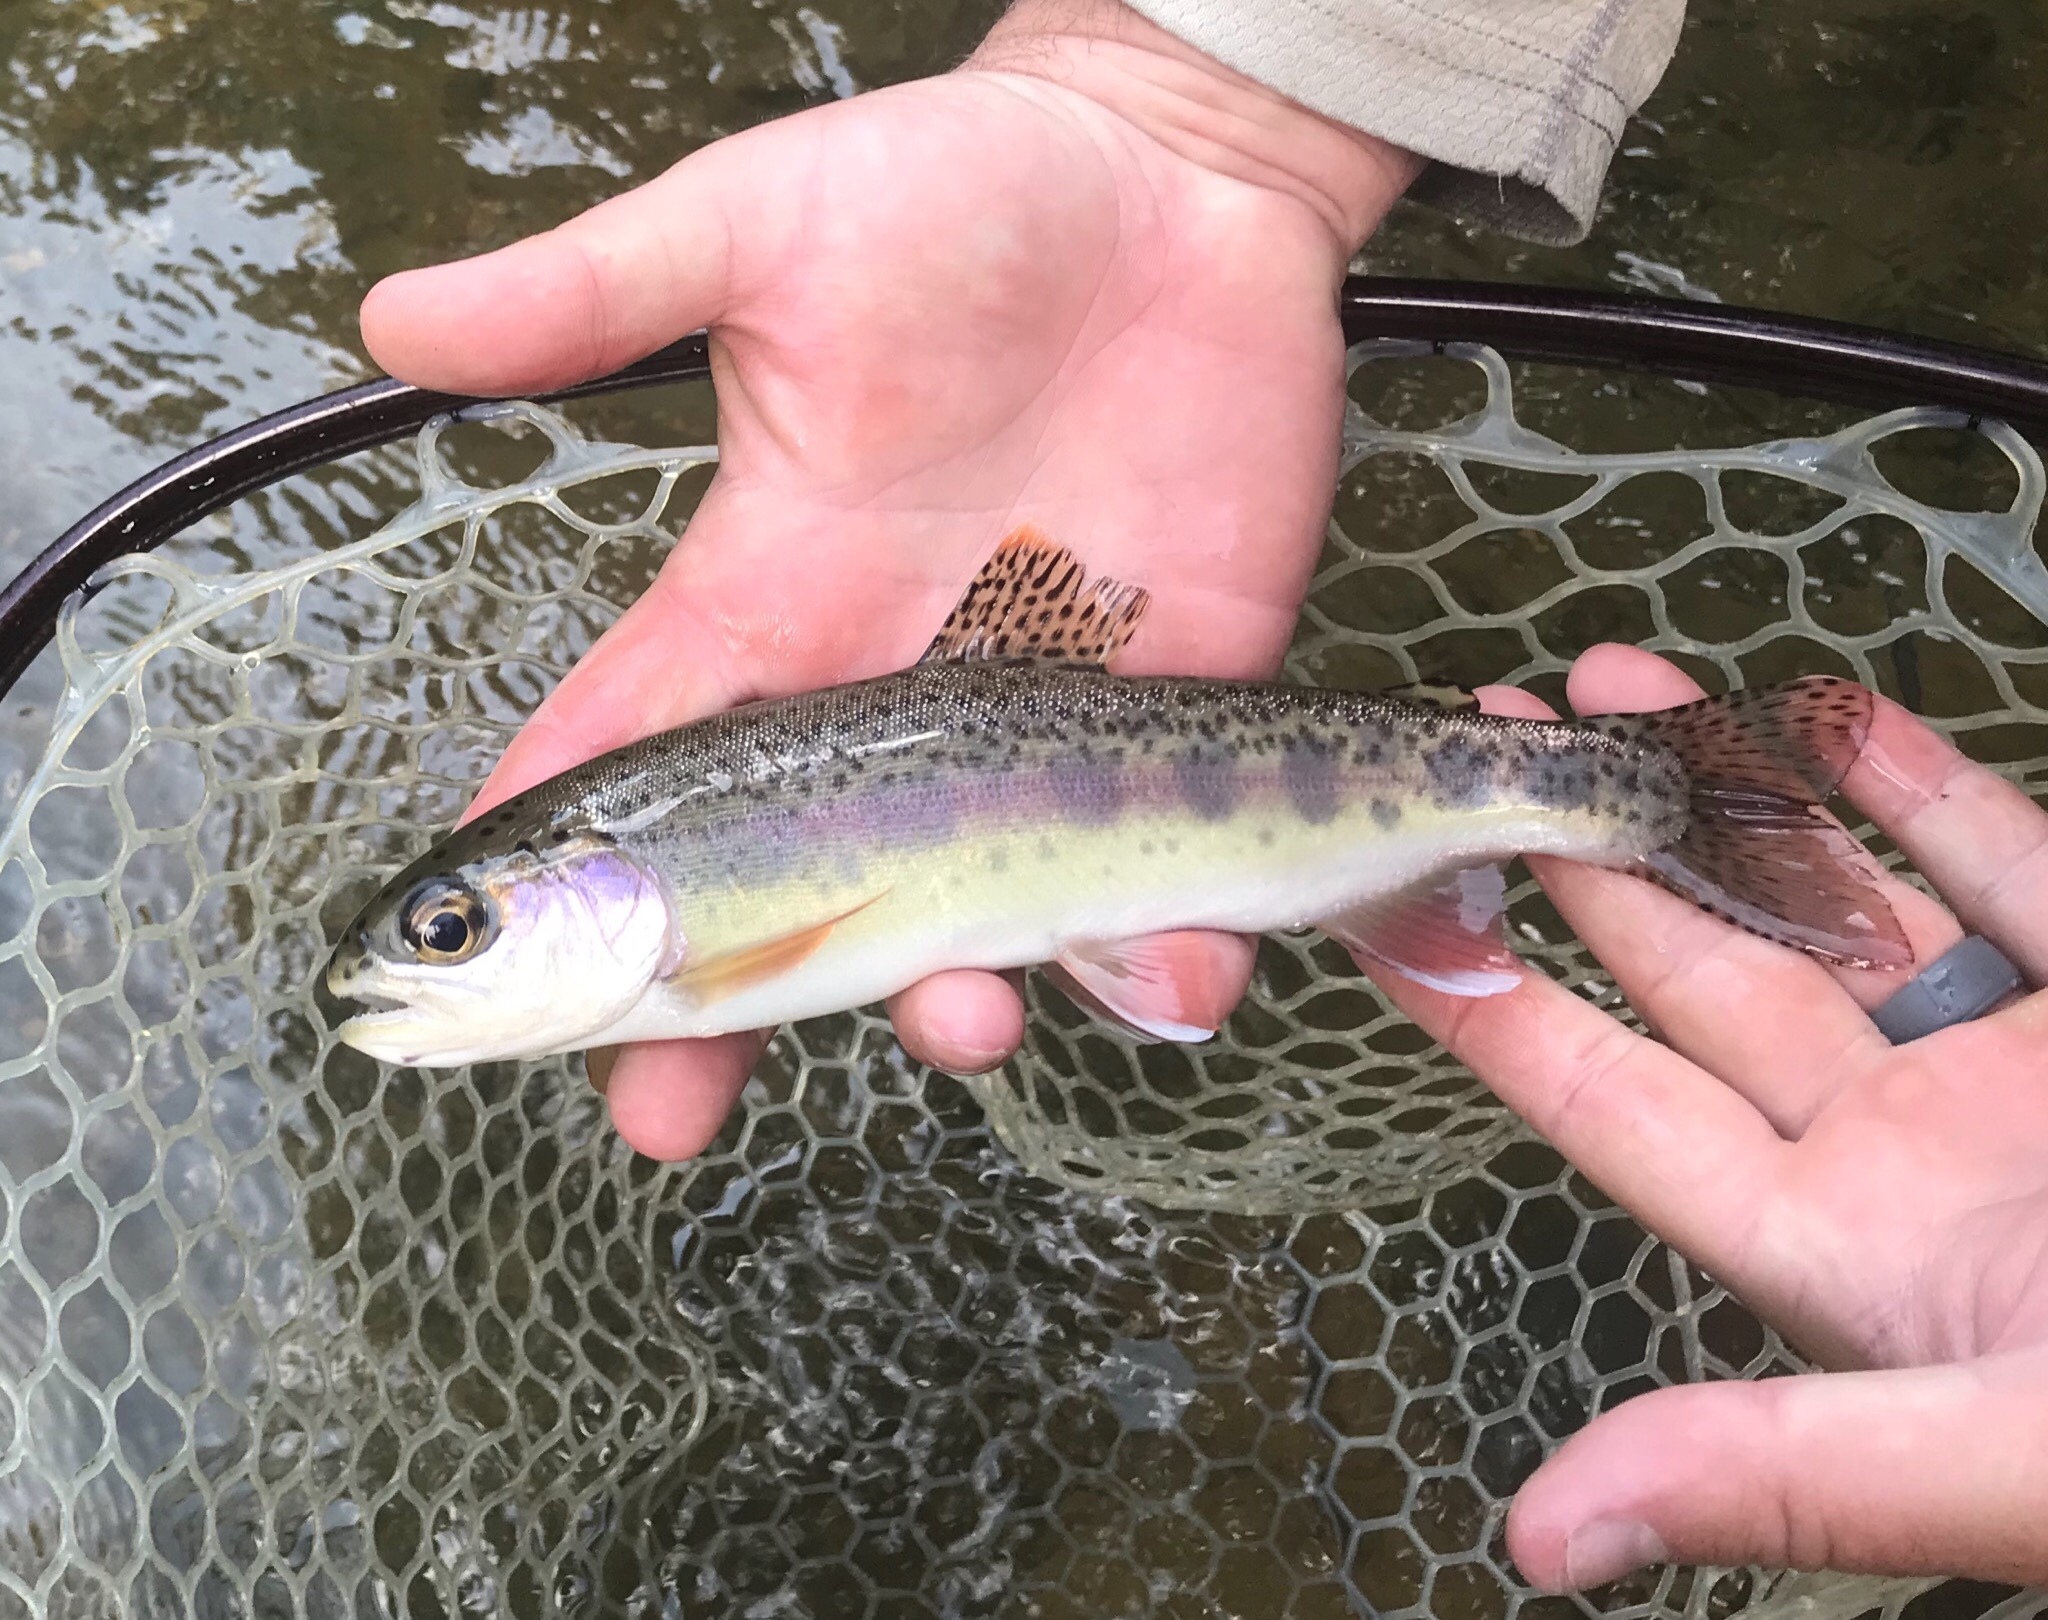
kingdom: Animalia
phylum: Chordata
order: Salmoniformes
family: Salmonidae
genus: Oncorhynchus
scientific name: Oncorhynchus mykiss
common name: Rainbow trout
